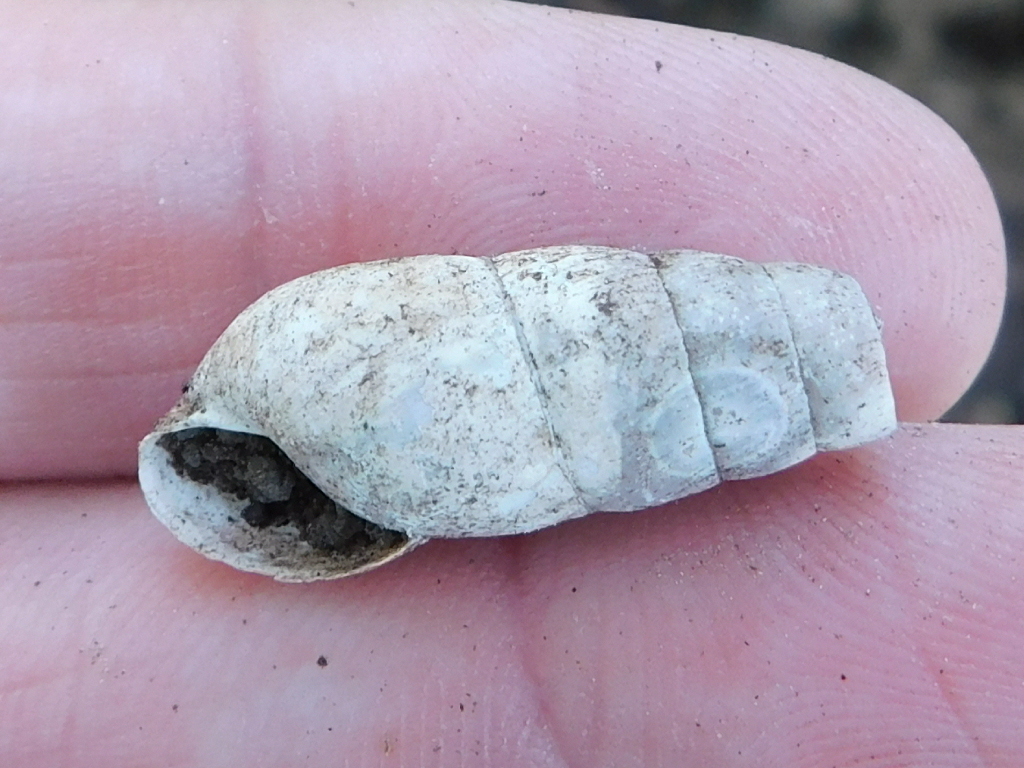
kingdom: Animalia
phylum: Mollusca
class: Gastropoda
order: Stylommatophora
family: Achatinidae
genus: Rumina
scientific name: Rumina decollata
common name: Decollate snail
